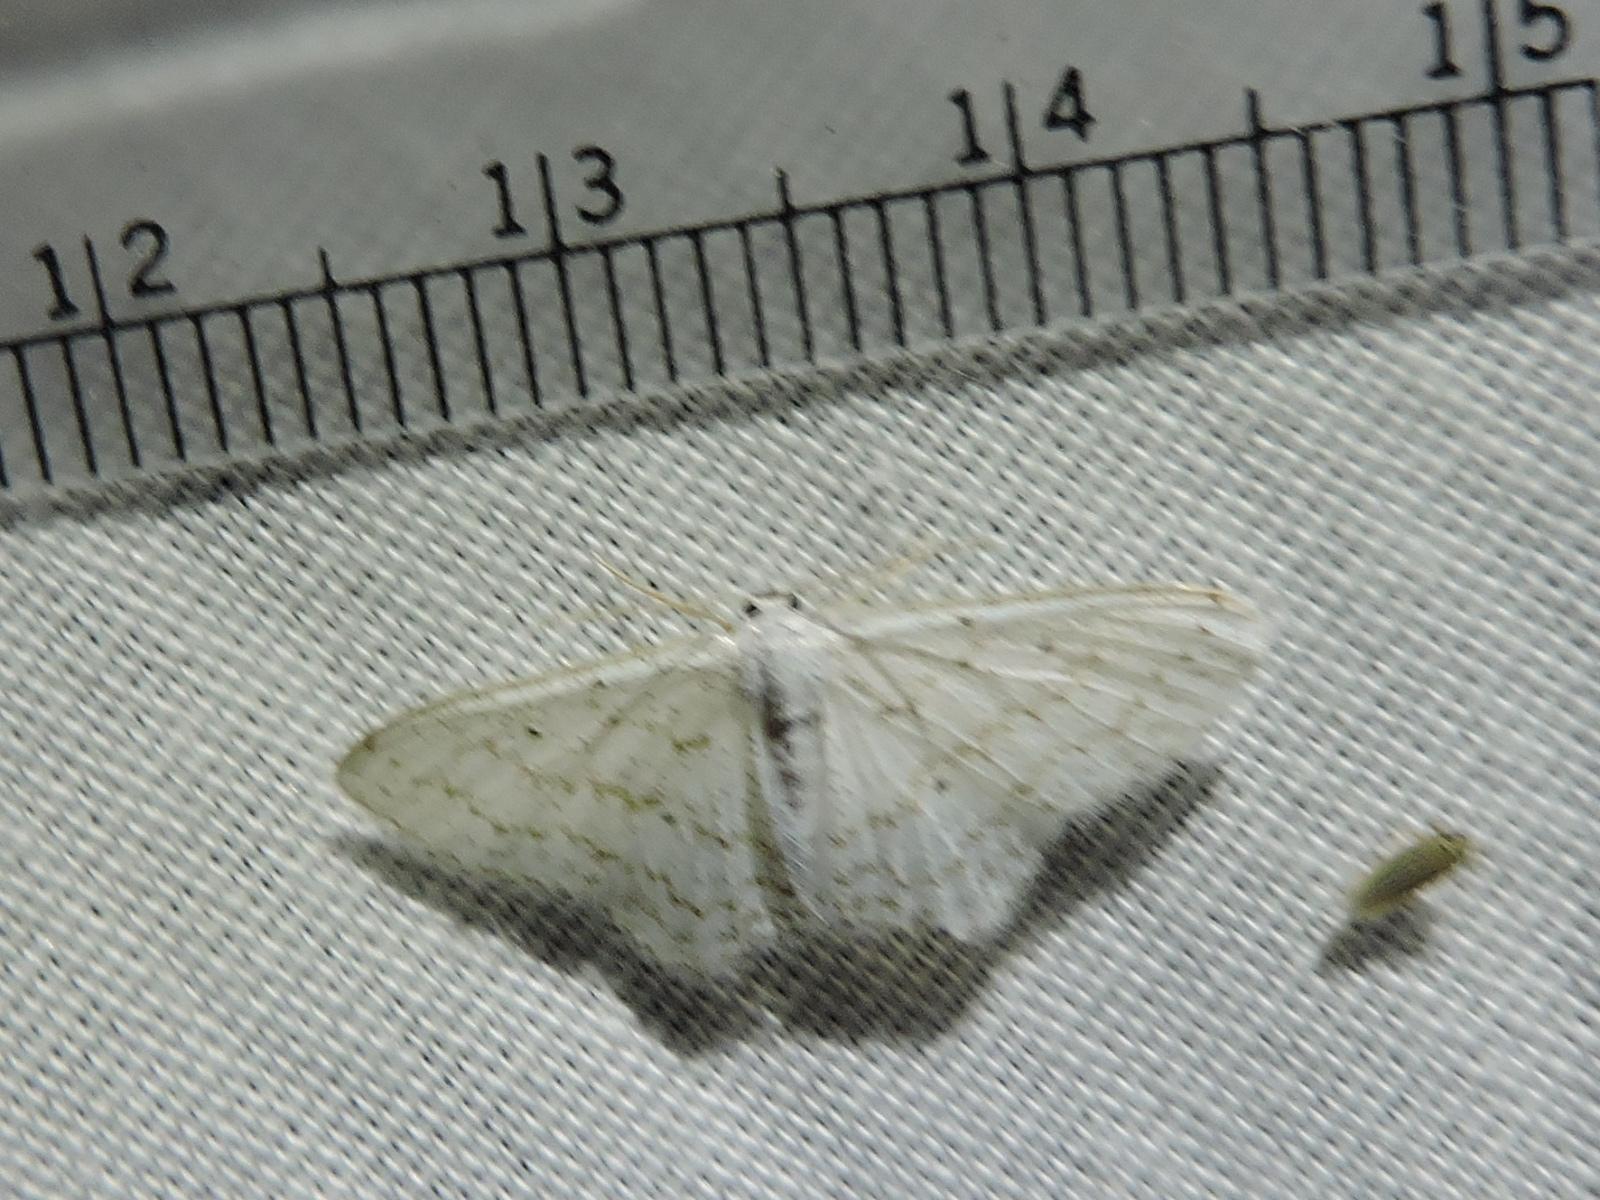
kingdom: Animalia
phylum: Arthropoda
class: Insecta
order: Lepidoptera
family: Geometridae
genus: Idaea
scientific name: Idaea tacturata
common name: Dot-lined wave
